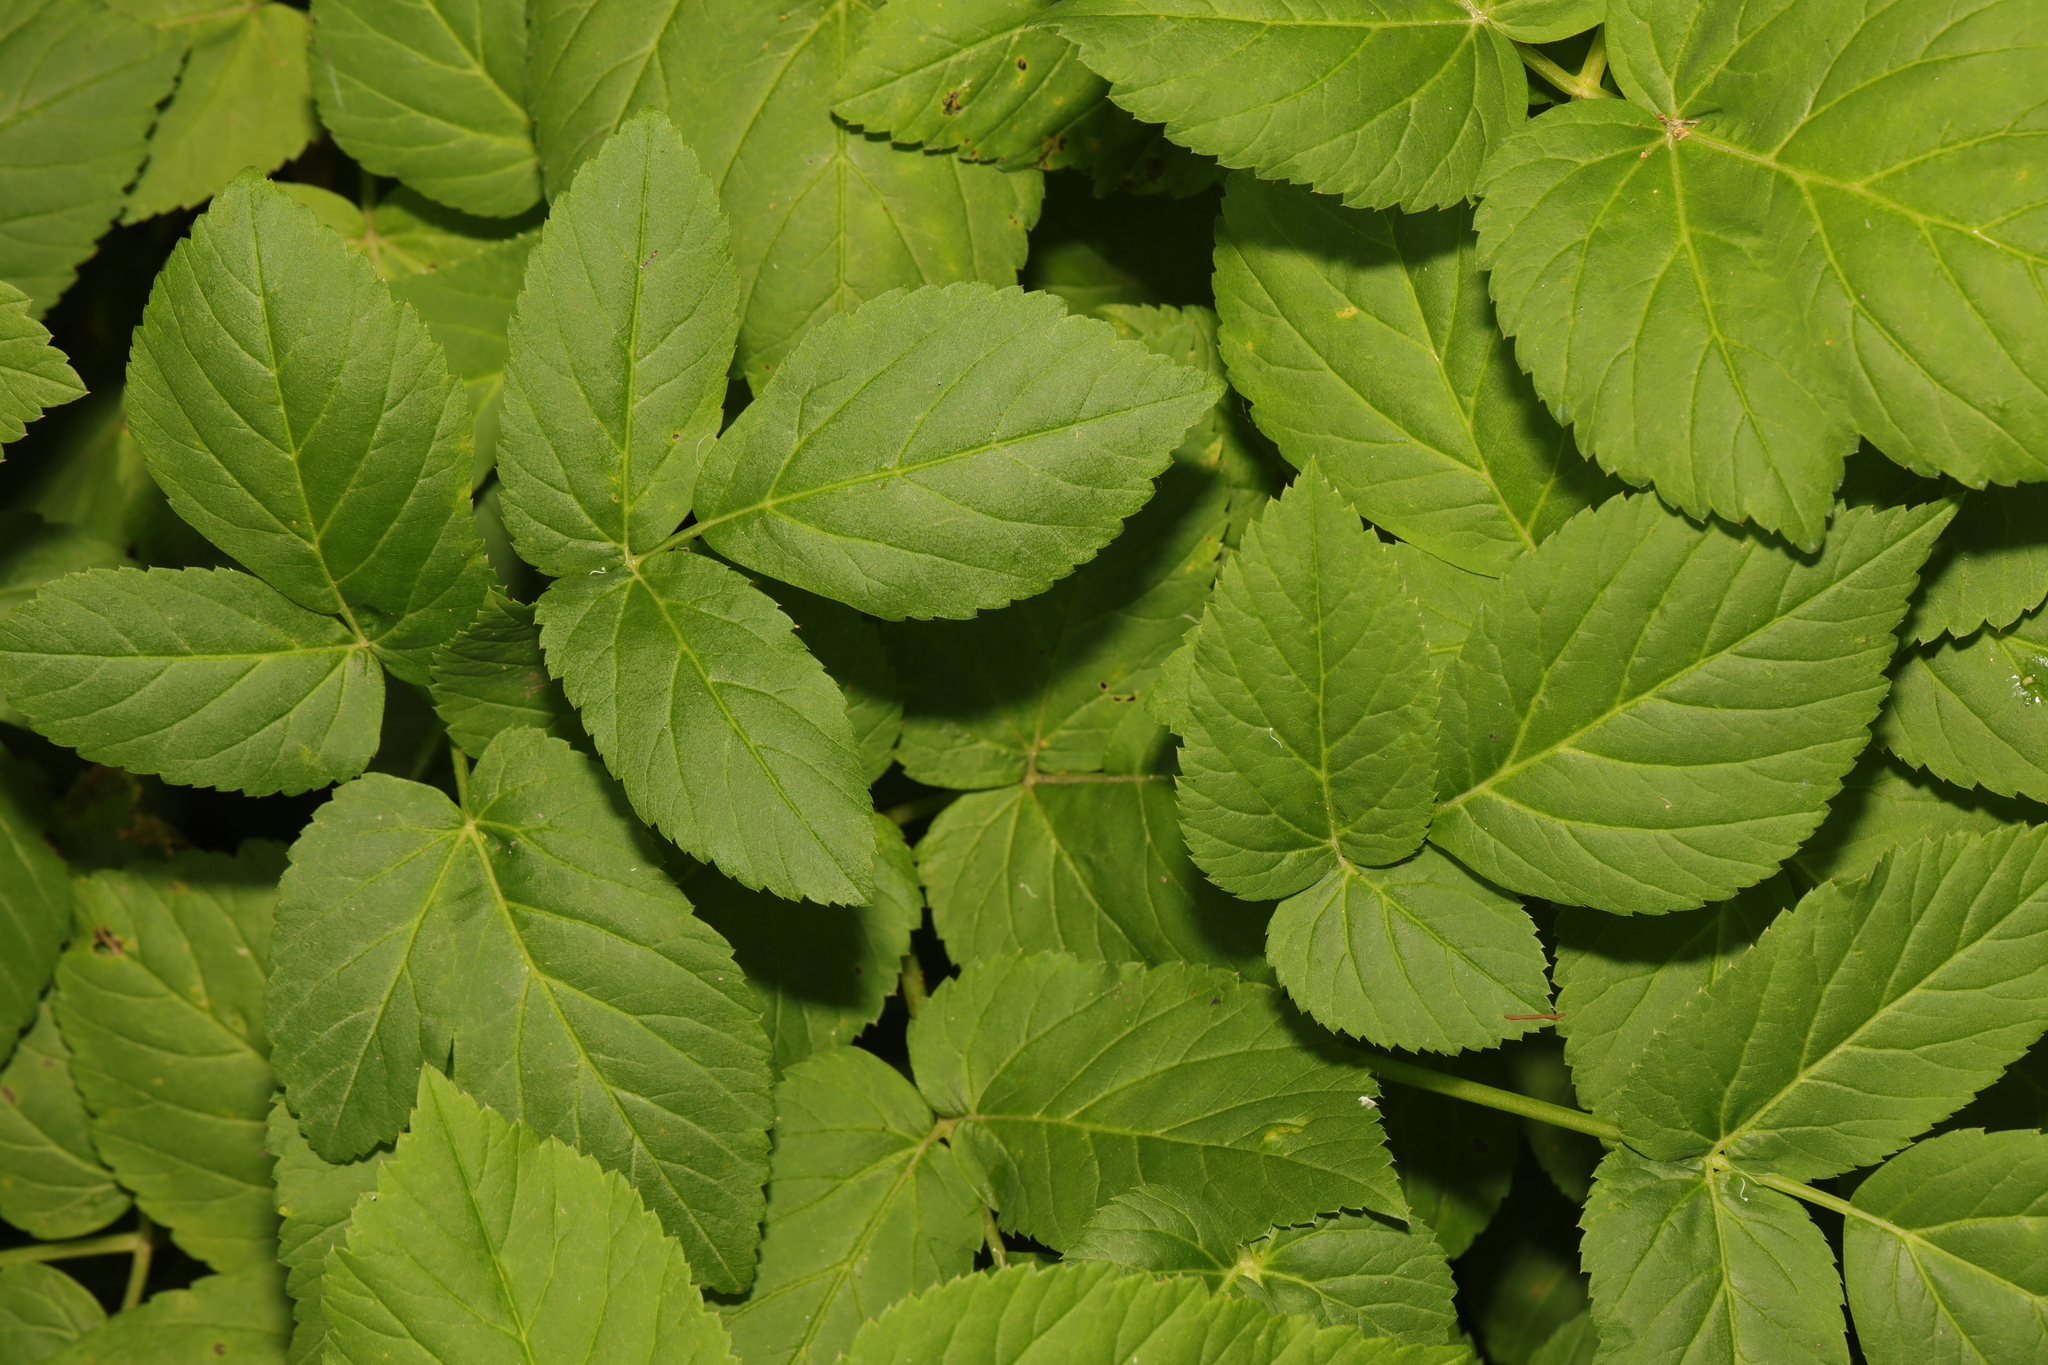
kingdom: Plantae
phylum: Tracheophyta
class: Magnoliopsida
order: Apiales
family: Apiaceae
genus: Aegopodium
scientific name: Aegopodium podagraria
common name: Ground-elder
